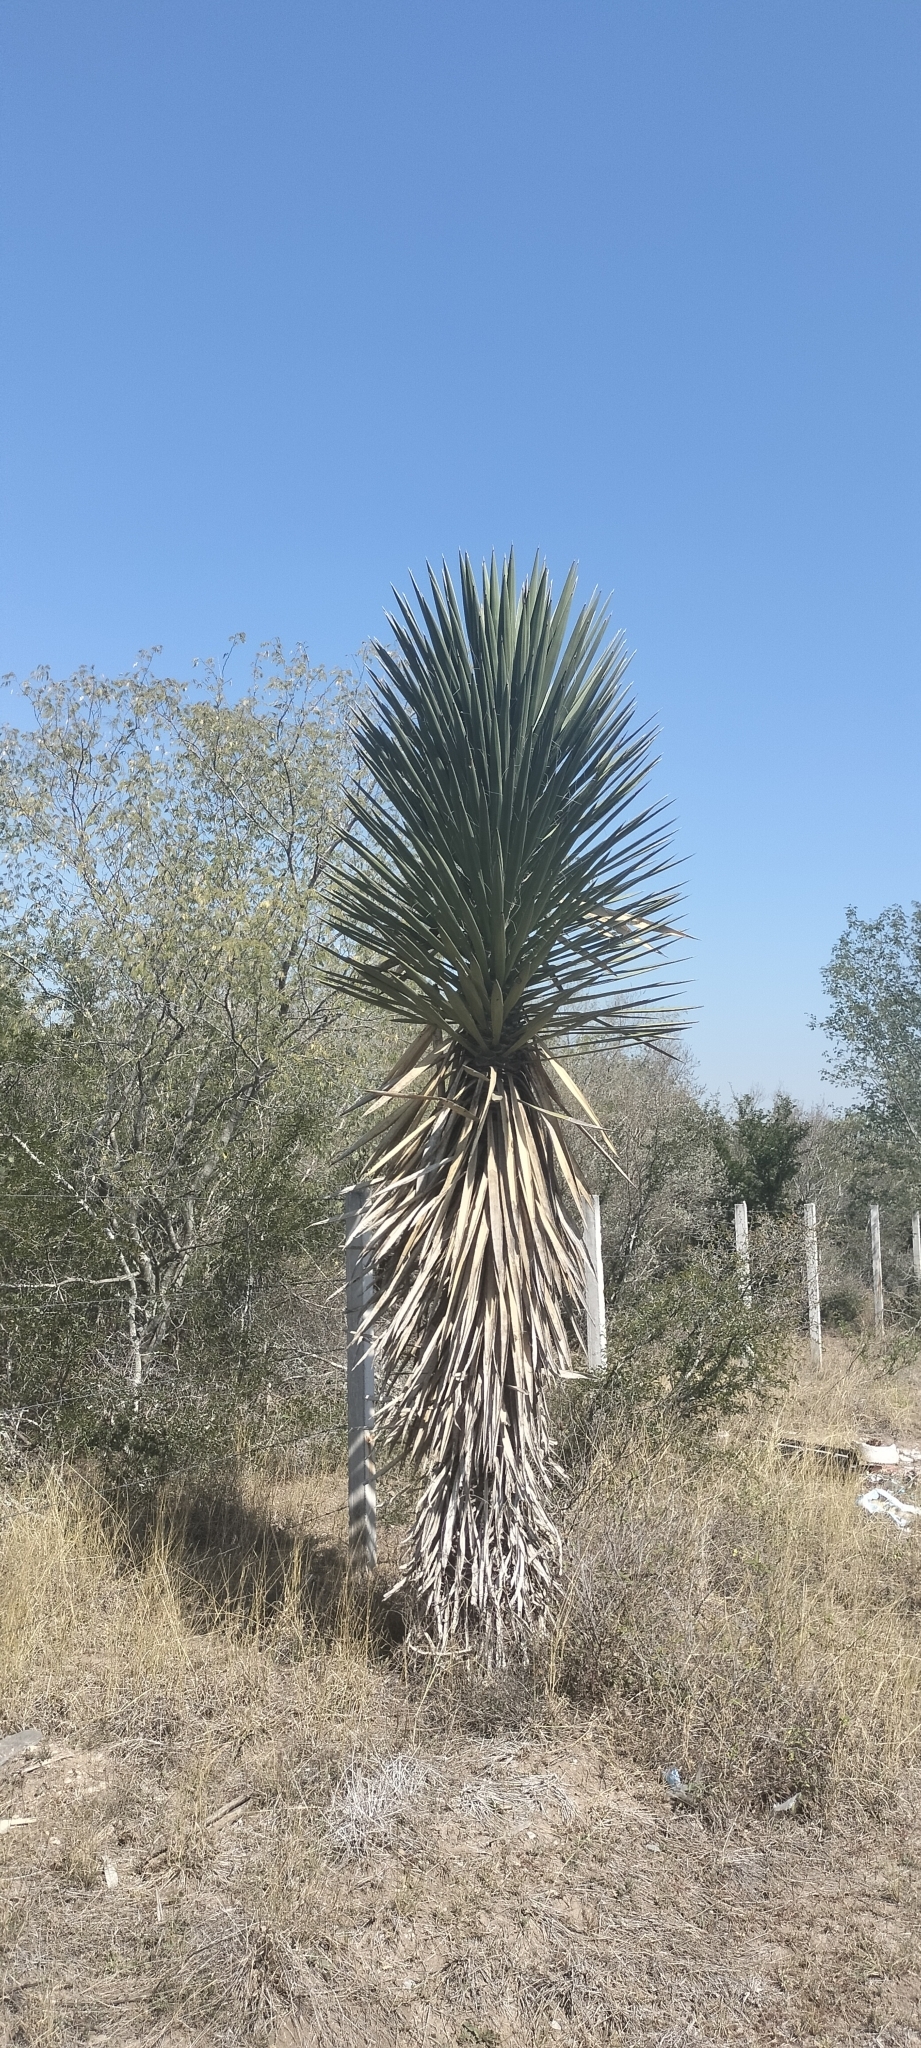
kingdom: Plantae
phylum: Tracheophyta
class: Liliopsida
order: Asparagales
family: Asparagaceae
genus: Yucca
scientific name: Yucca filifera
